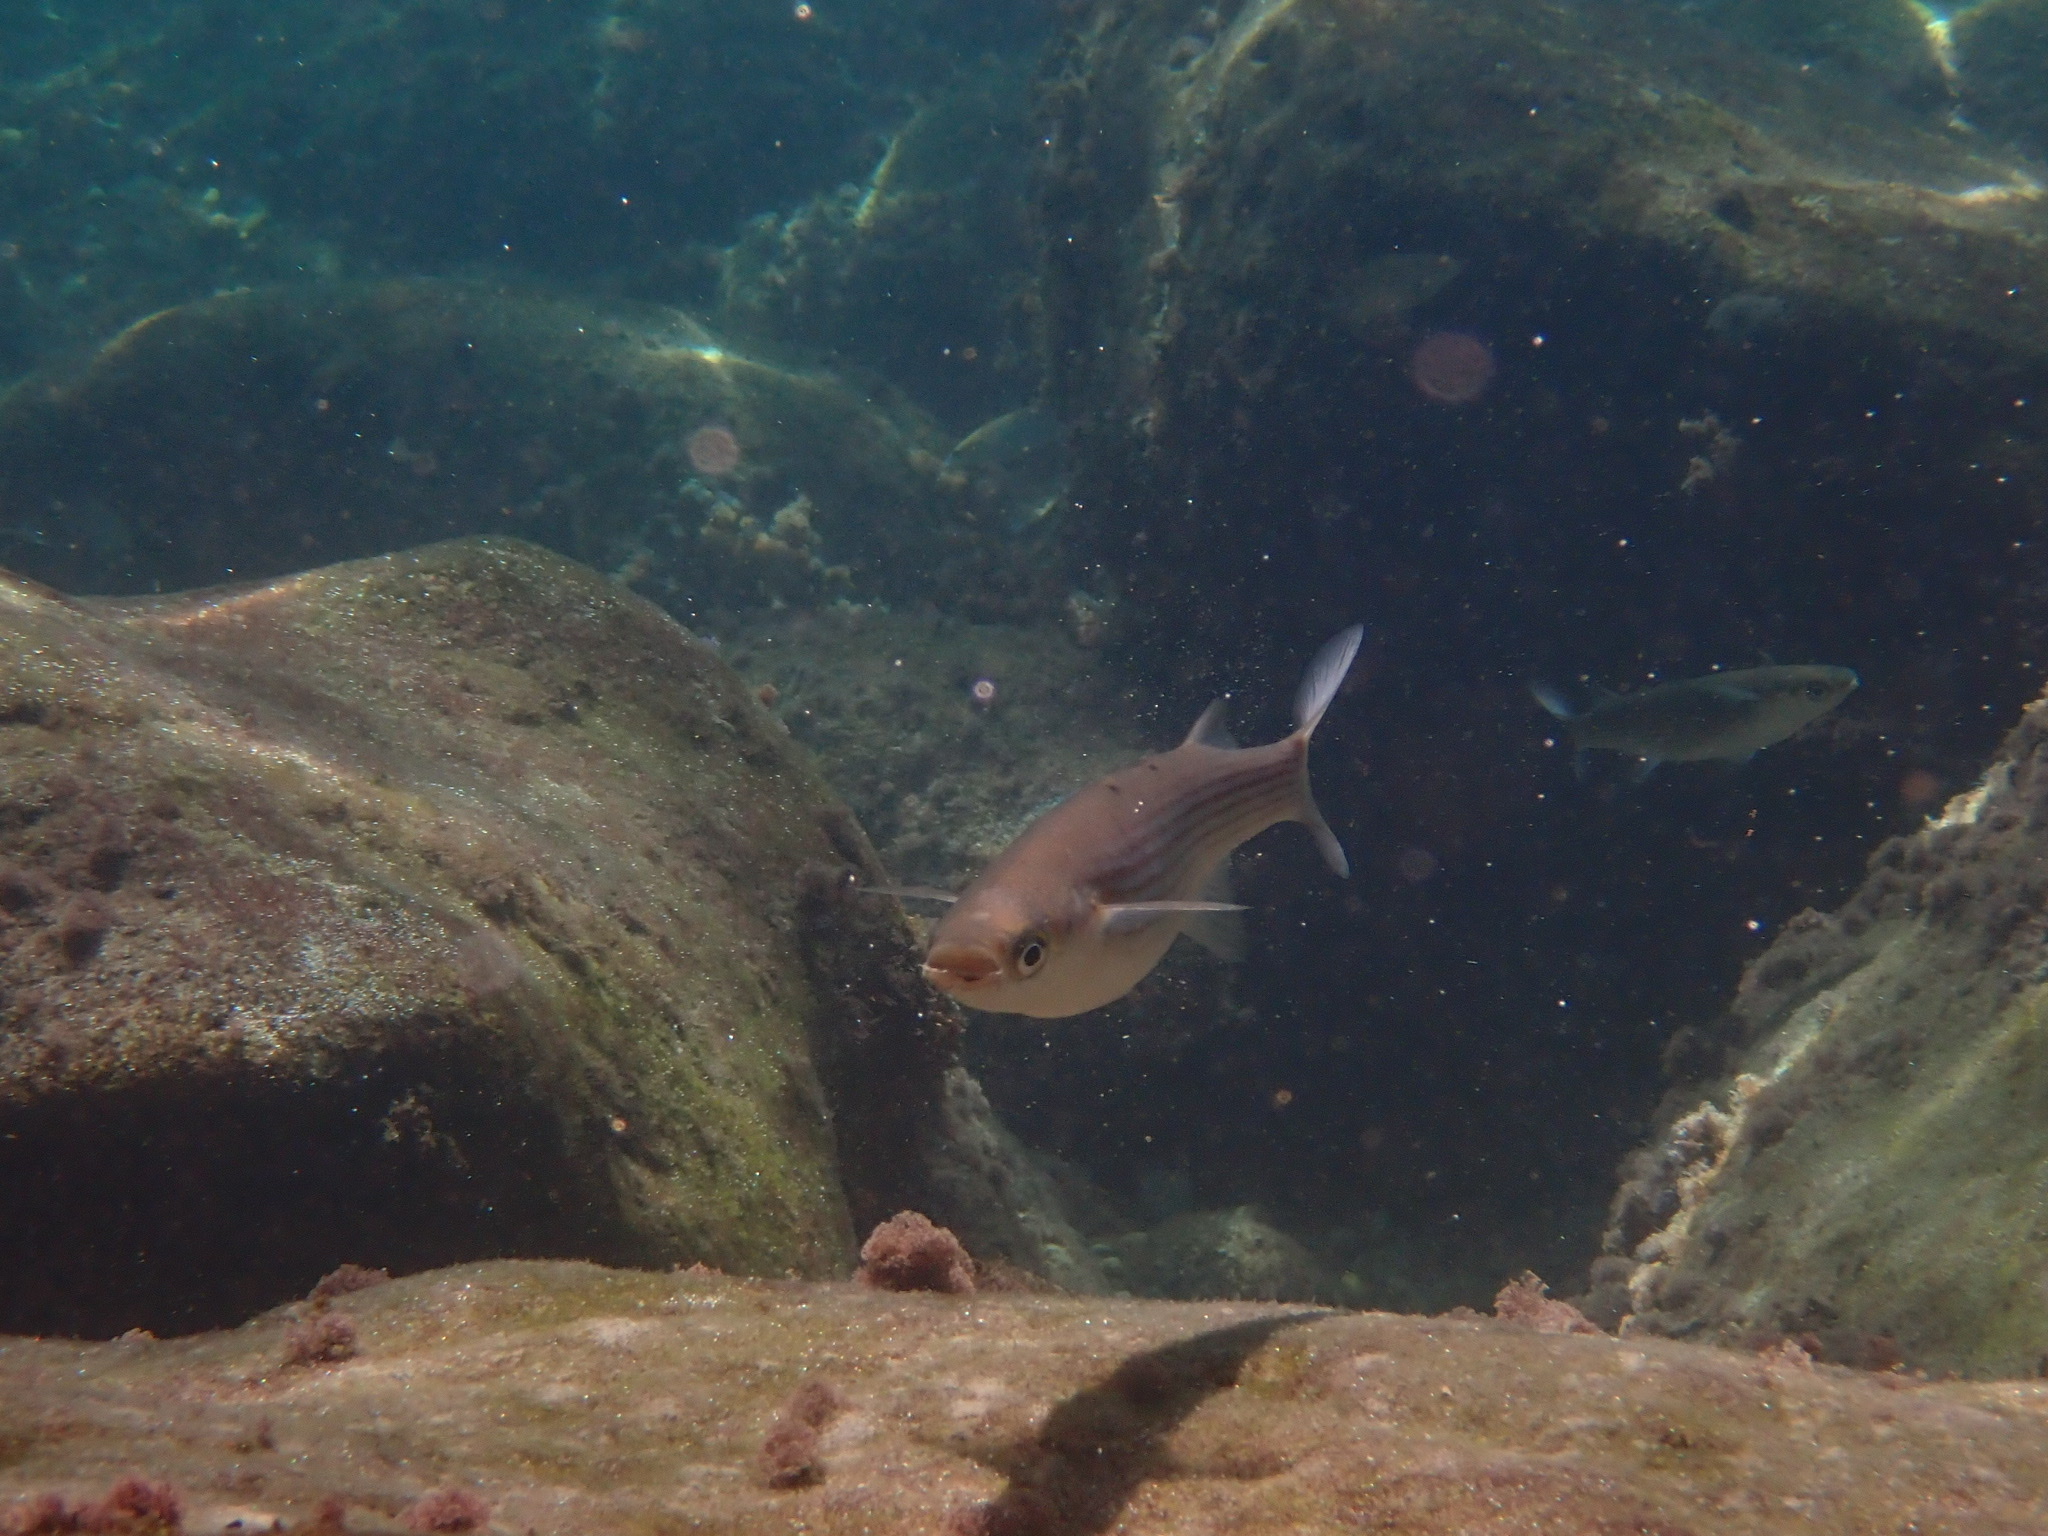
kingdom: Animalia
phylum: Chordata
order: Mugiliformes
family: Mugilidae
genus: Oedalechilus
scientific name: Oedalechilus labeo
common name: Boxlip mullet
